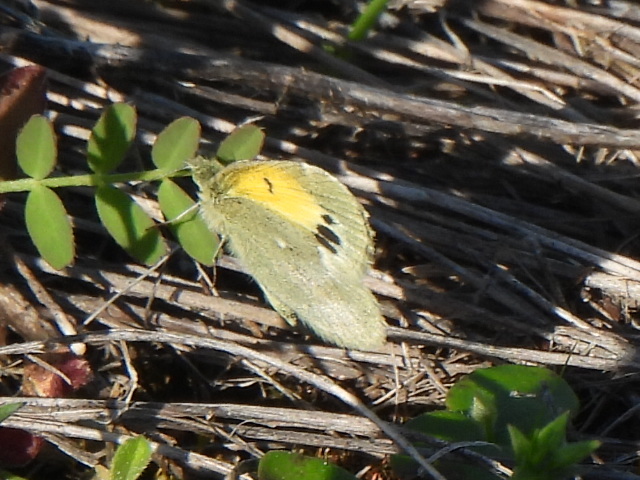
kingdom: Animalia
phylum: Arthropoda
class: Insecta
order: Lepidoptera
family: Pieridae
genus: Nathalis
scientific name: Nathalis iole
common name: Dainty sulphur
